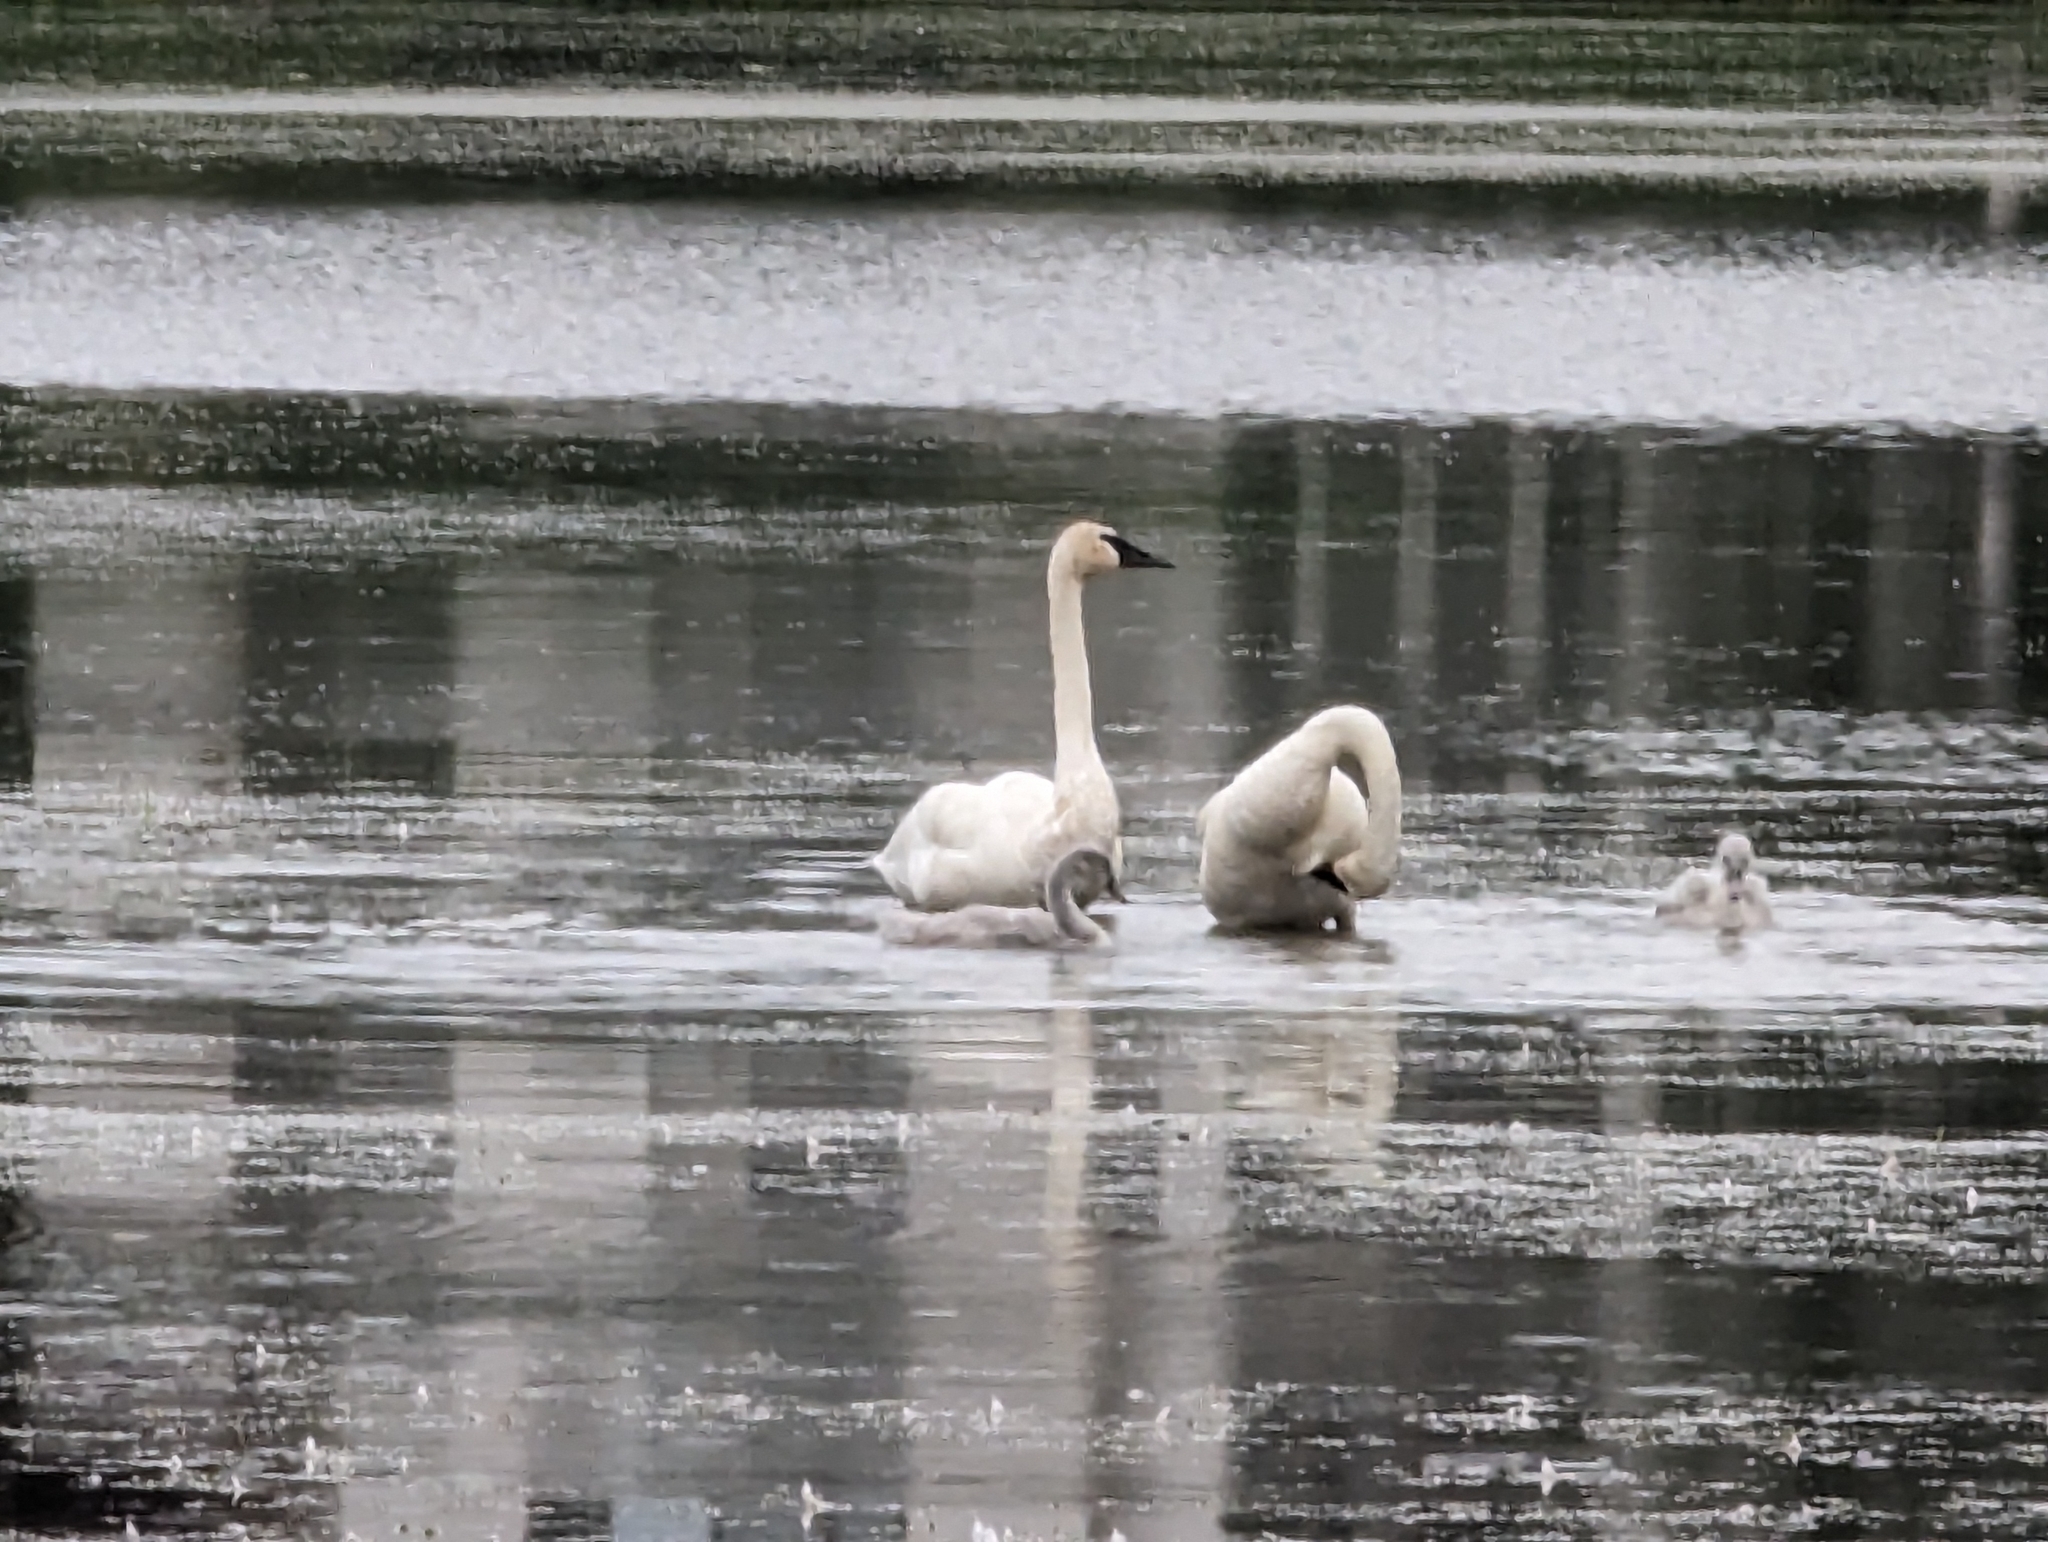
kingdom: Animalia
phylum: Chordata
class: Aves
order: Anseriformes
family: Anatidae
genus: Cygnus
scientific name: Cygnus buccinator
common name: Trumpeter swan
